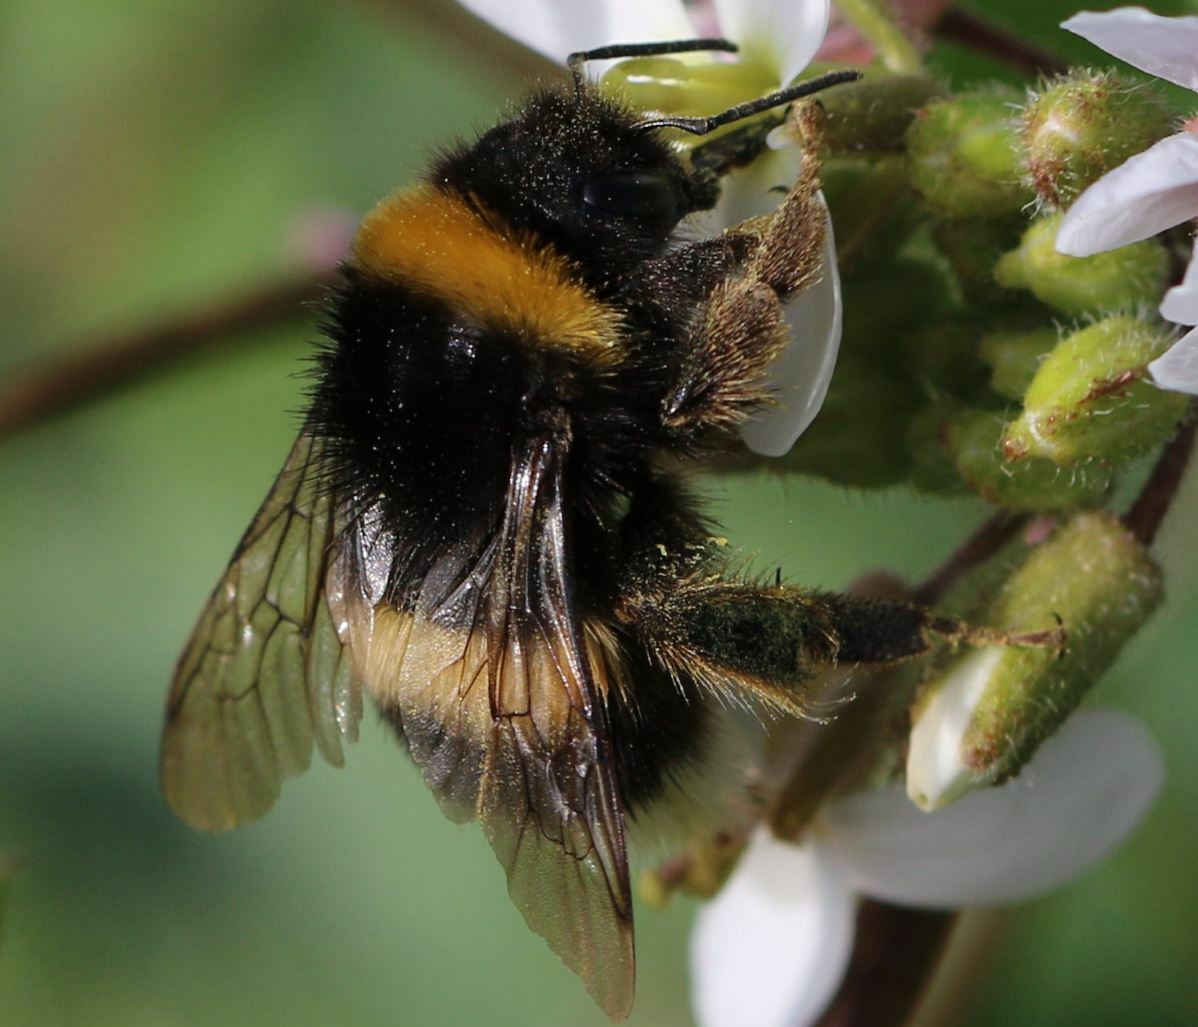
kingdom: Animalia
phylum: Arthropoda
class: Insecta
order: Hymenoptera
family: Apidae
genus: Bombus
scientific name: Bombus terrestris
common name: Buff-tailed bumblebee
